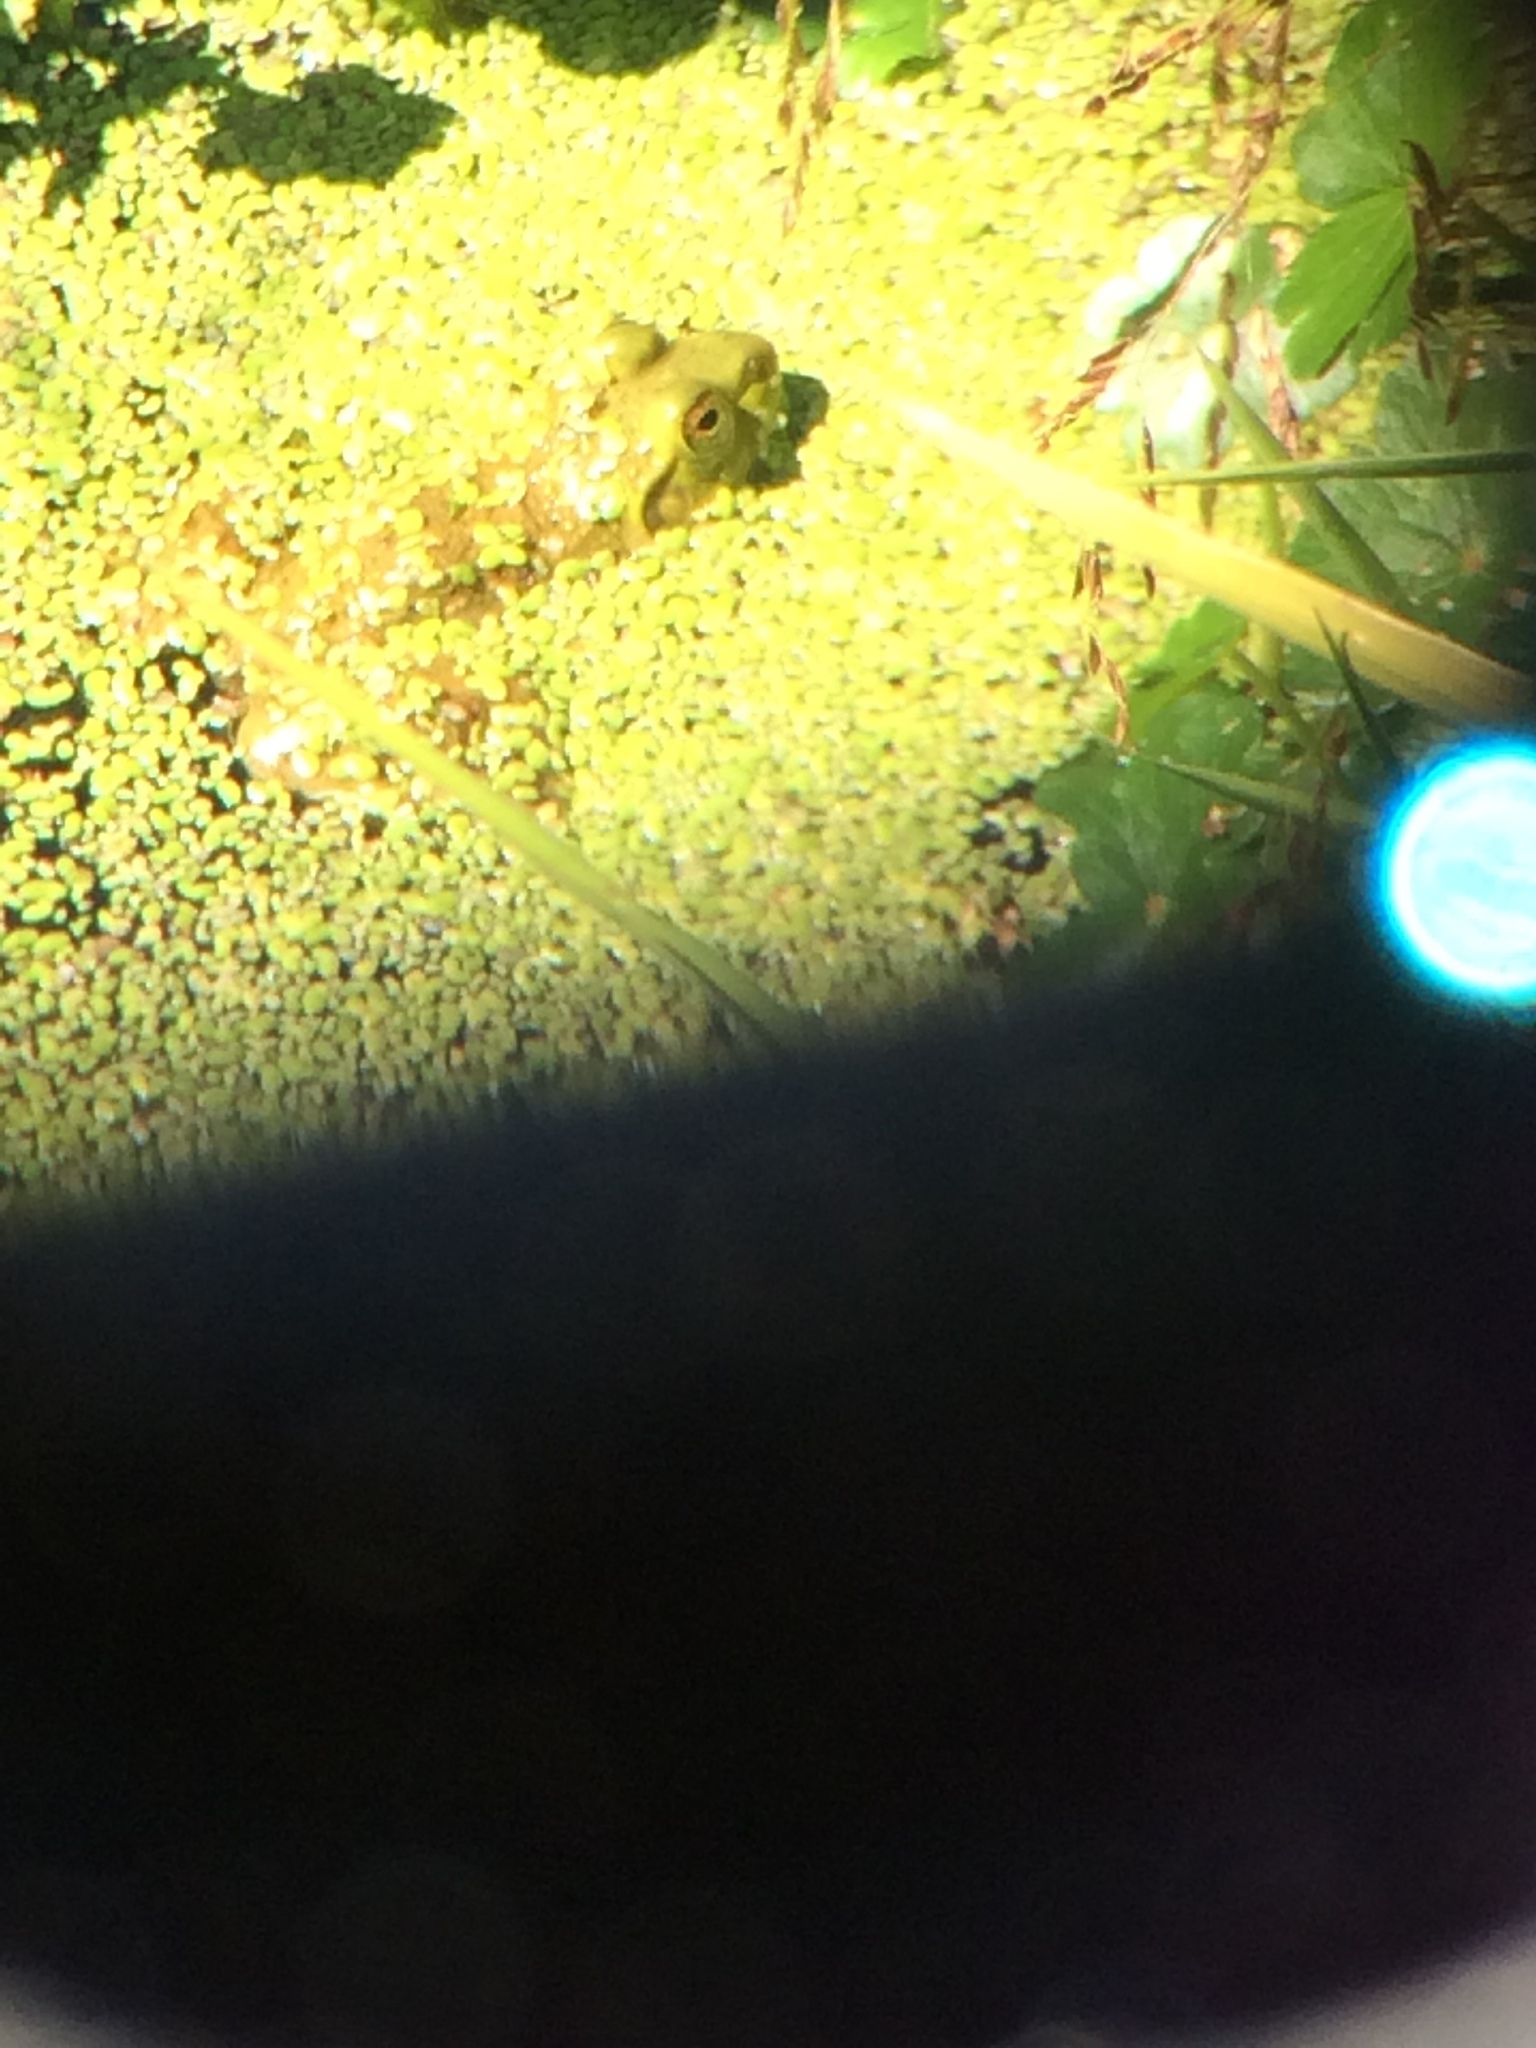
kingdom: Animalia
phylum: Chordata
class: Amphibia
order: Anura
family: Ranidae
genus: Lithobates
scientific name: Lithobates catesbeianus
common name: American bullfrog
